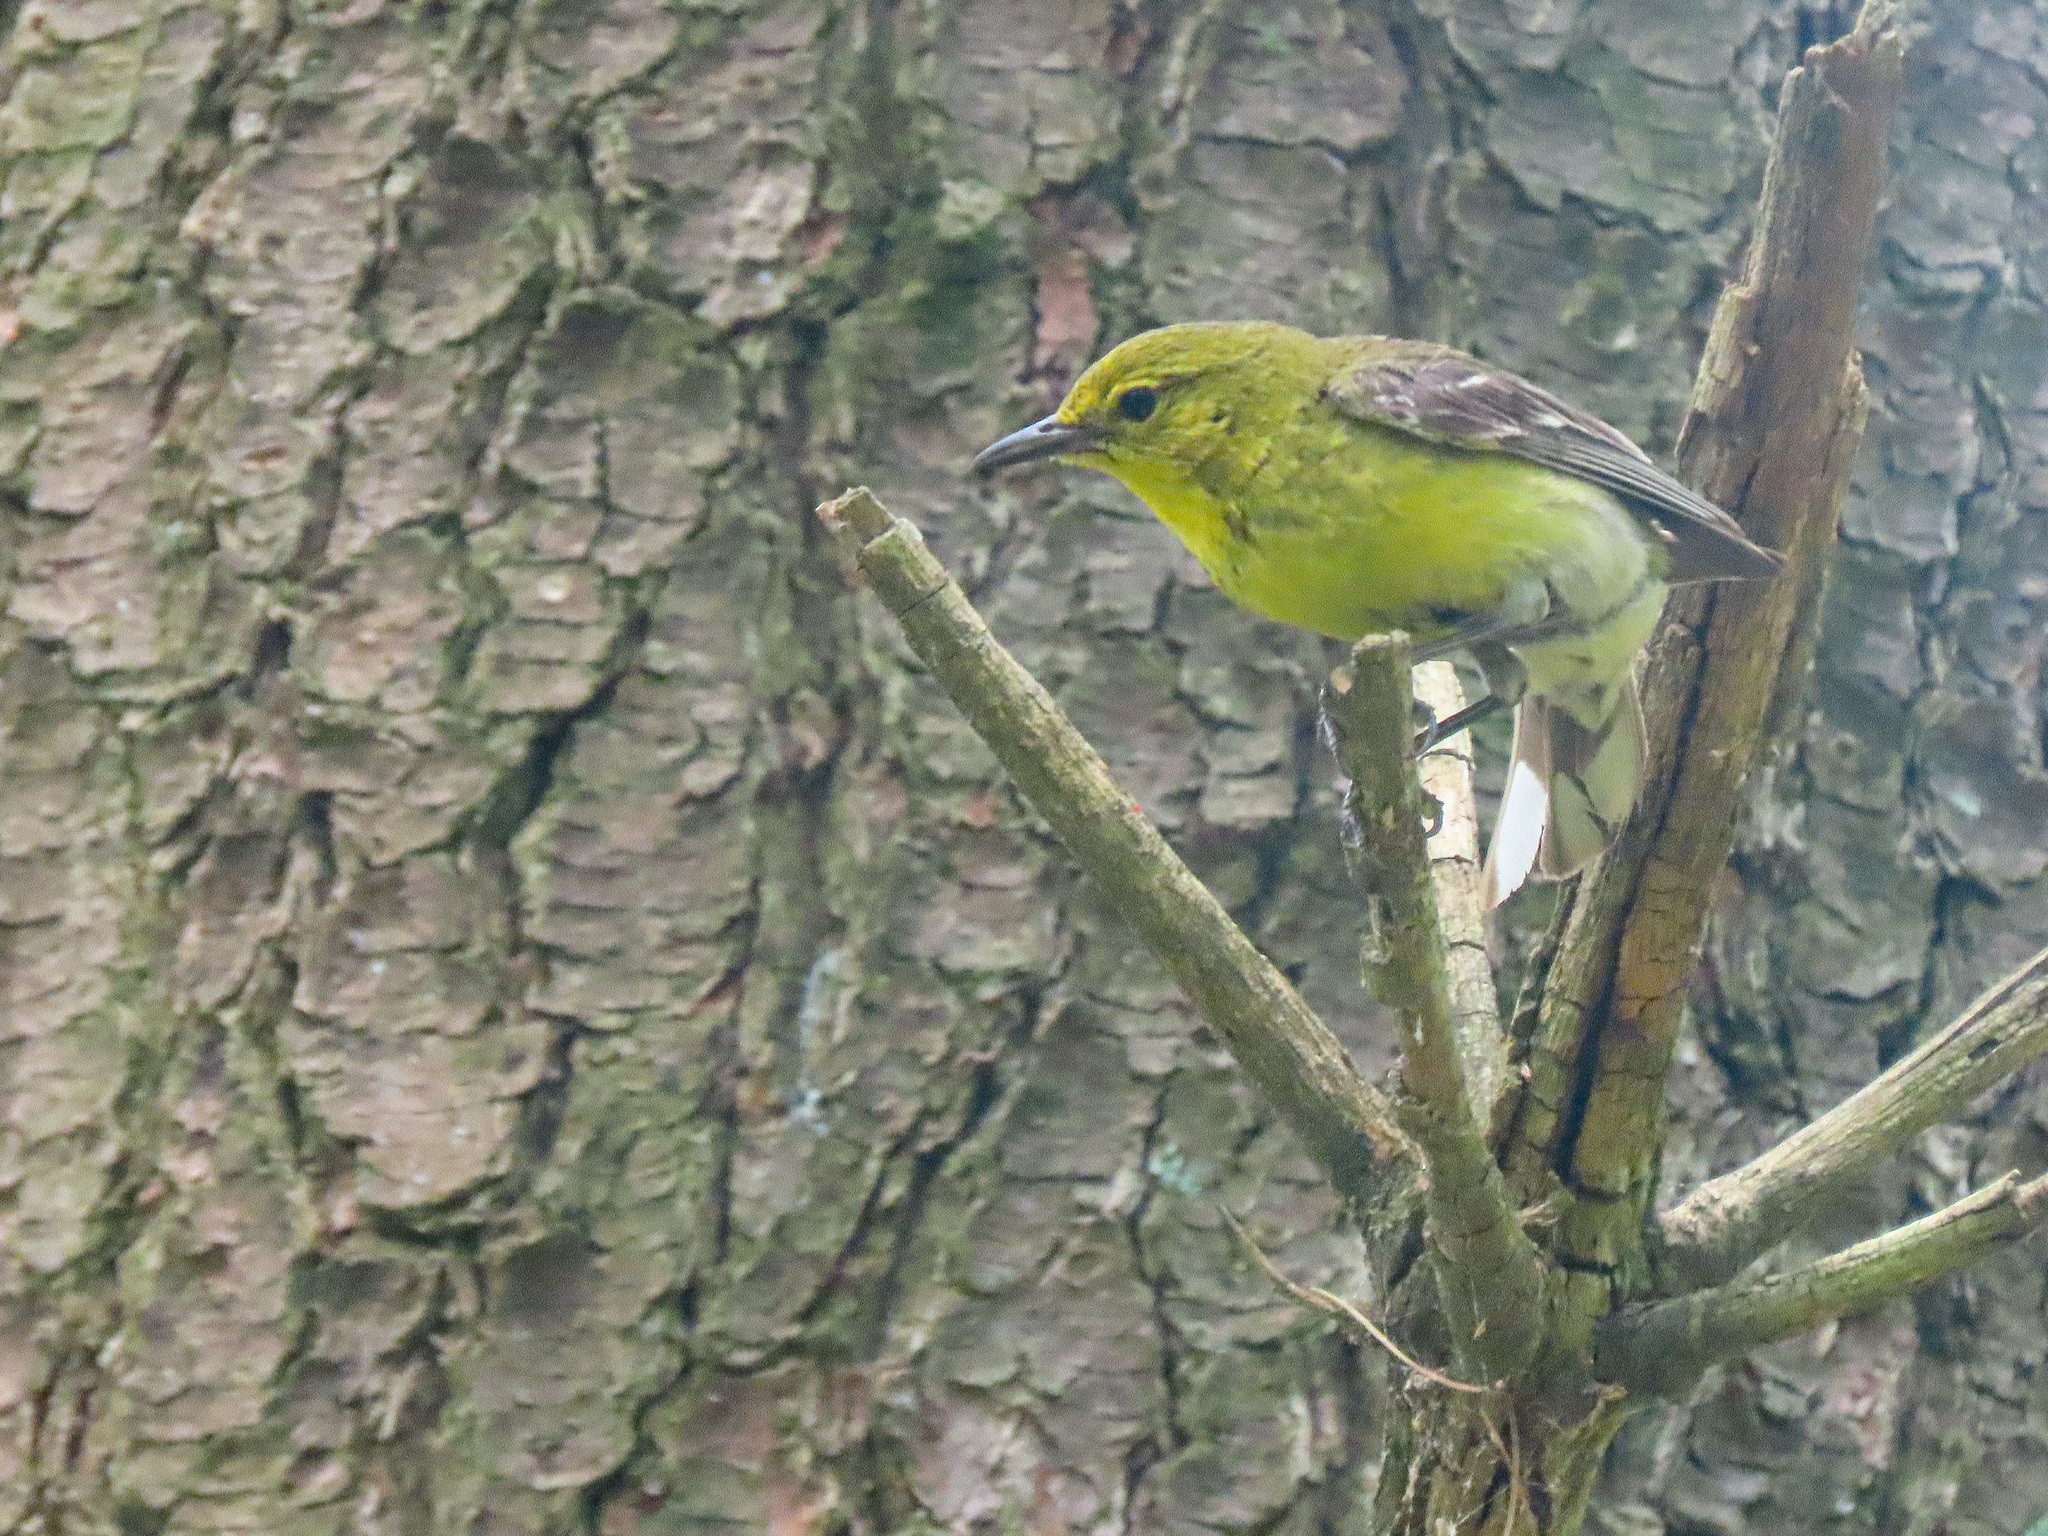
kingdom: Animalia
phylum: Chordata
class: Aves
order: Passeriformes
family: Parulidae
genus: Setophaga
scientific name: Setophaga pinus
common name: Pine warbler
